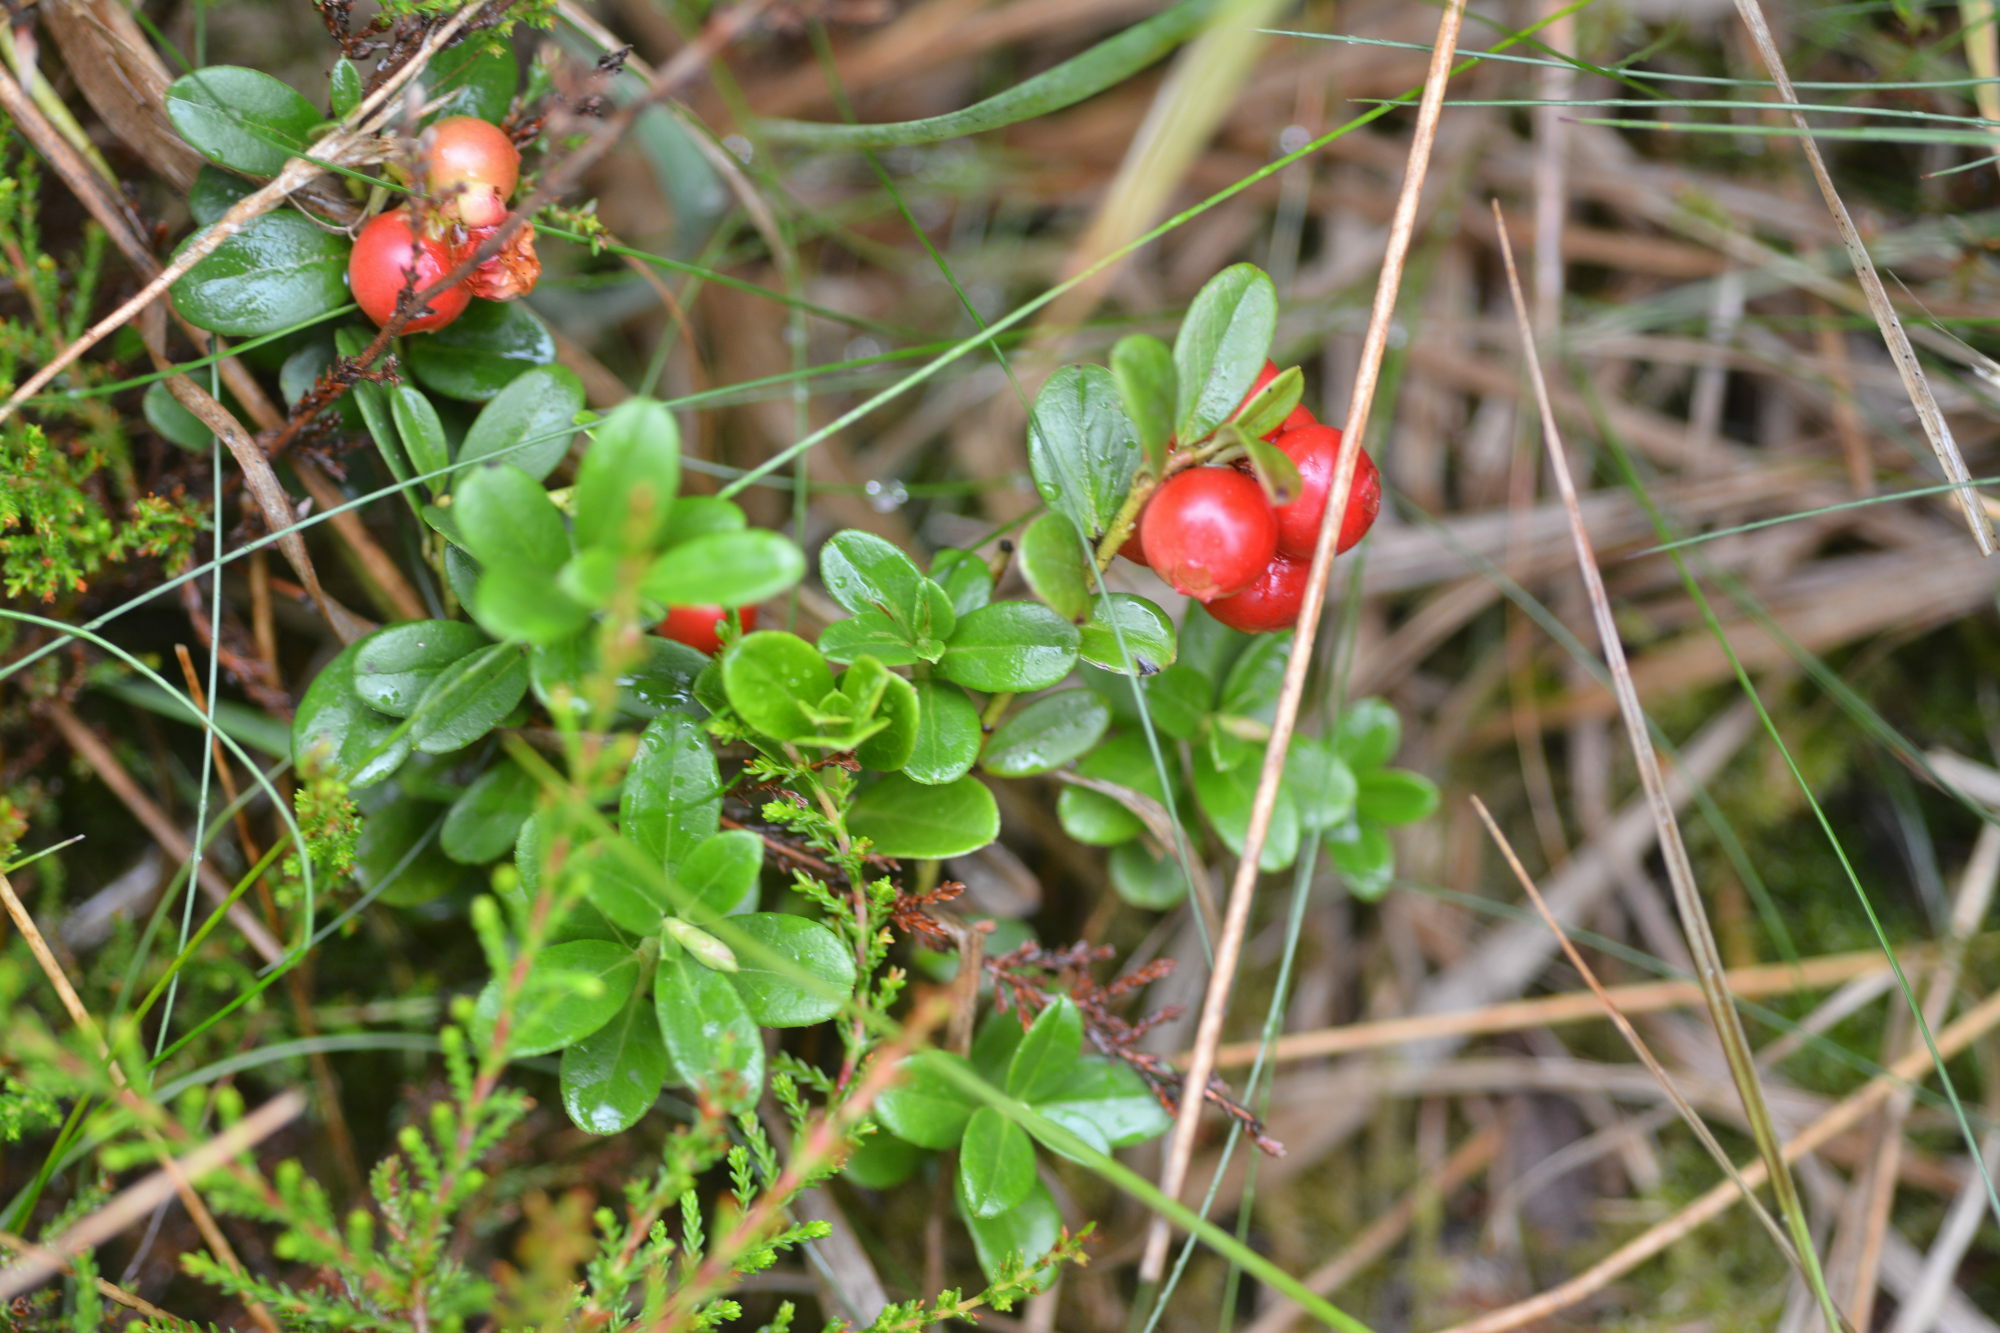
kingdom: Plantae
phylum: Tracheophyta
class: Magnoliopsida
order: Ericales
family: Ericaceae
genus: Vaccinium
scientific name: Vaccinium vitis-idaea
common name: Cowberry
